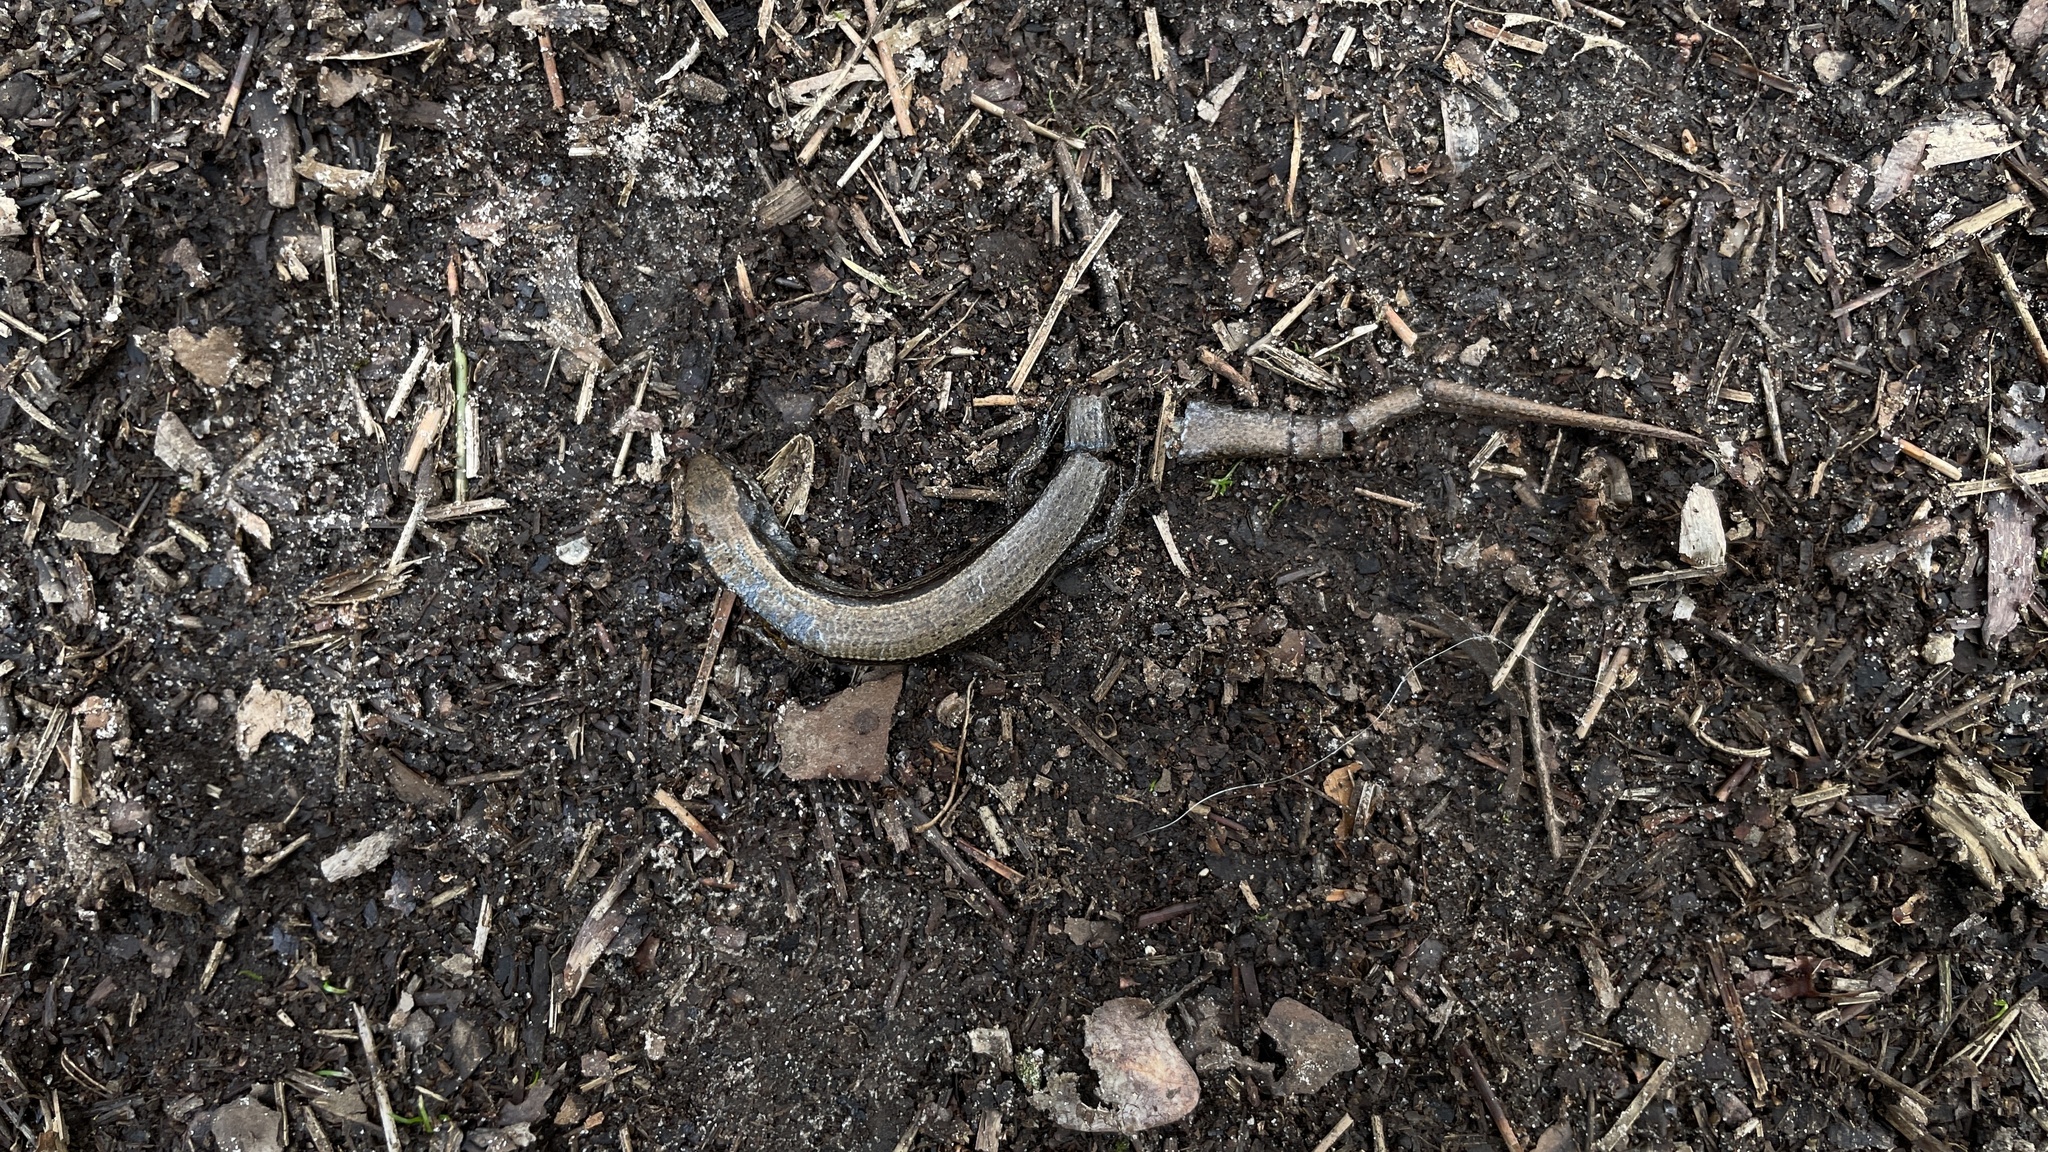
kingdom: Animalia
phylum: Chordata
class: Squamata
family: Scincidae
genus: Scincella
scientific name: Scincella lateralis
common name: Ground skink
